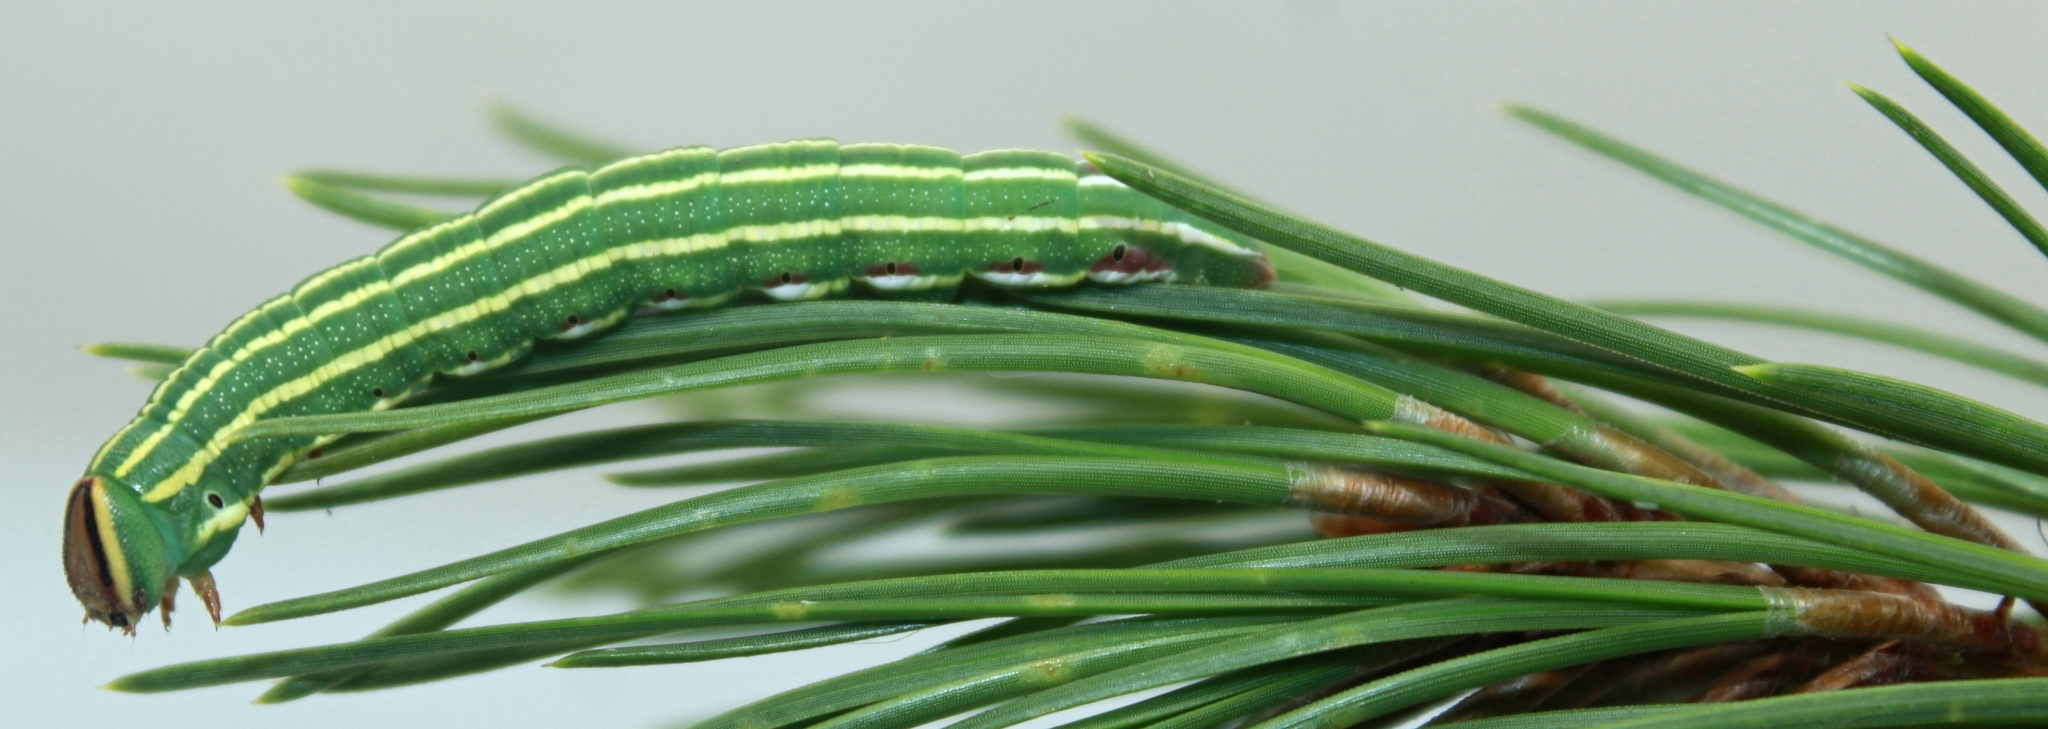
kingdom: Animalia
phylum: Arthropoda
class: Insecta
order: Lepidoptera
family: Sphingidae
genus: Lapara
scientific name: Lapara coniferarum
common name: Southern pine sphinx
